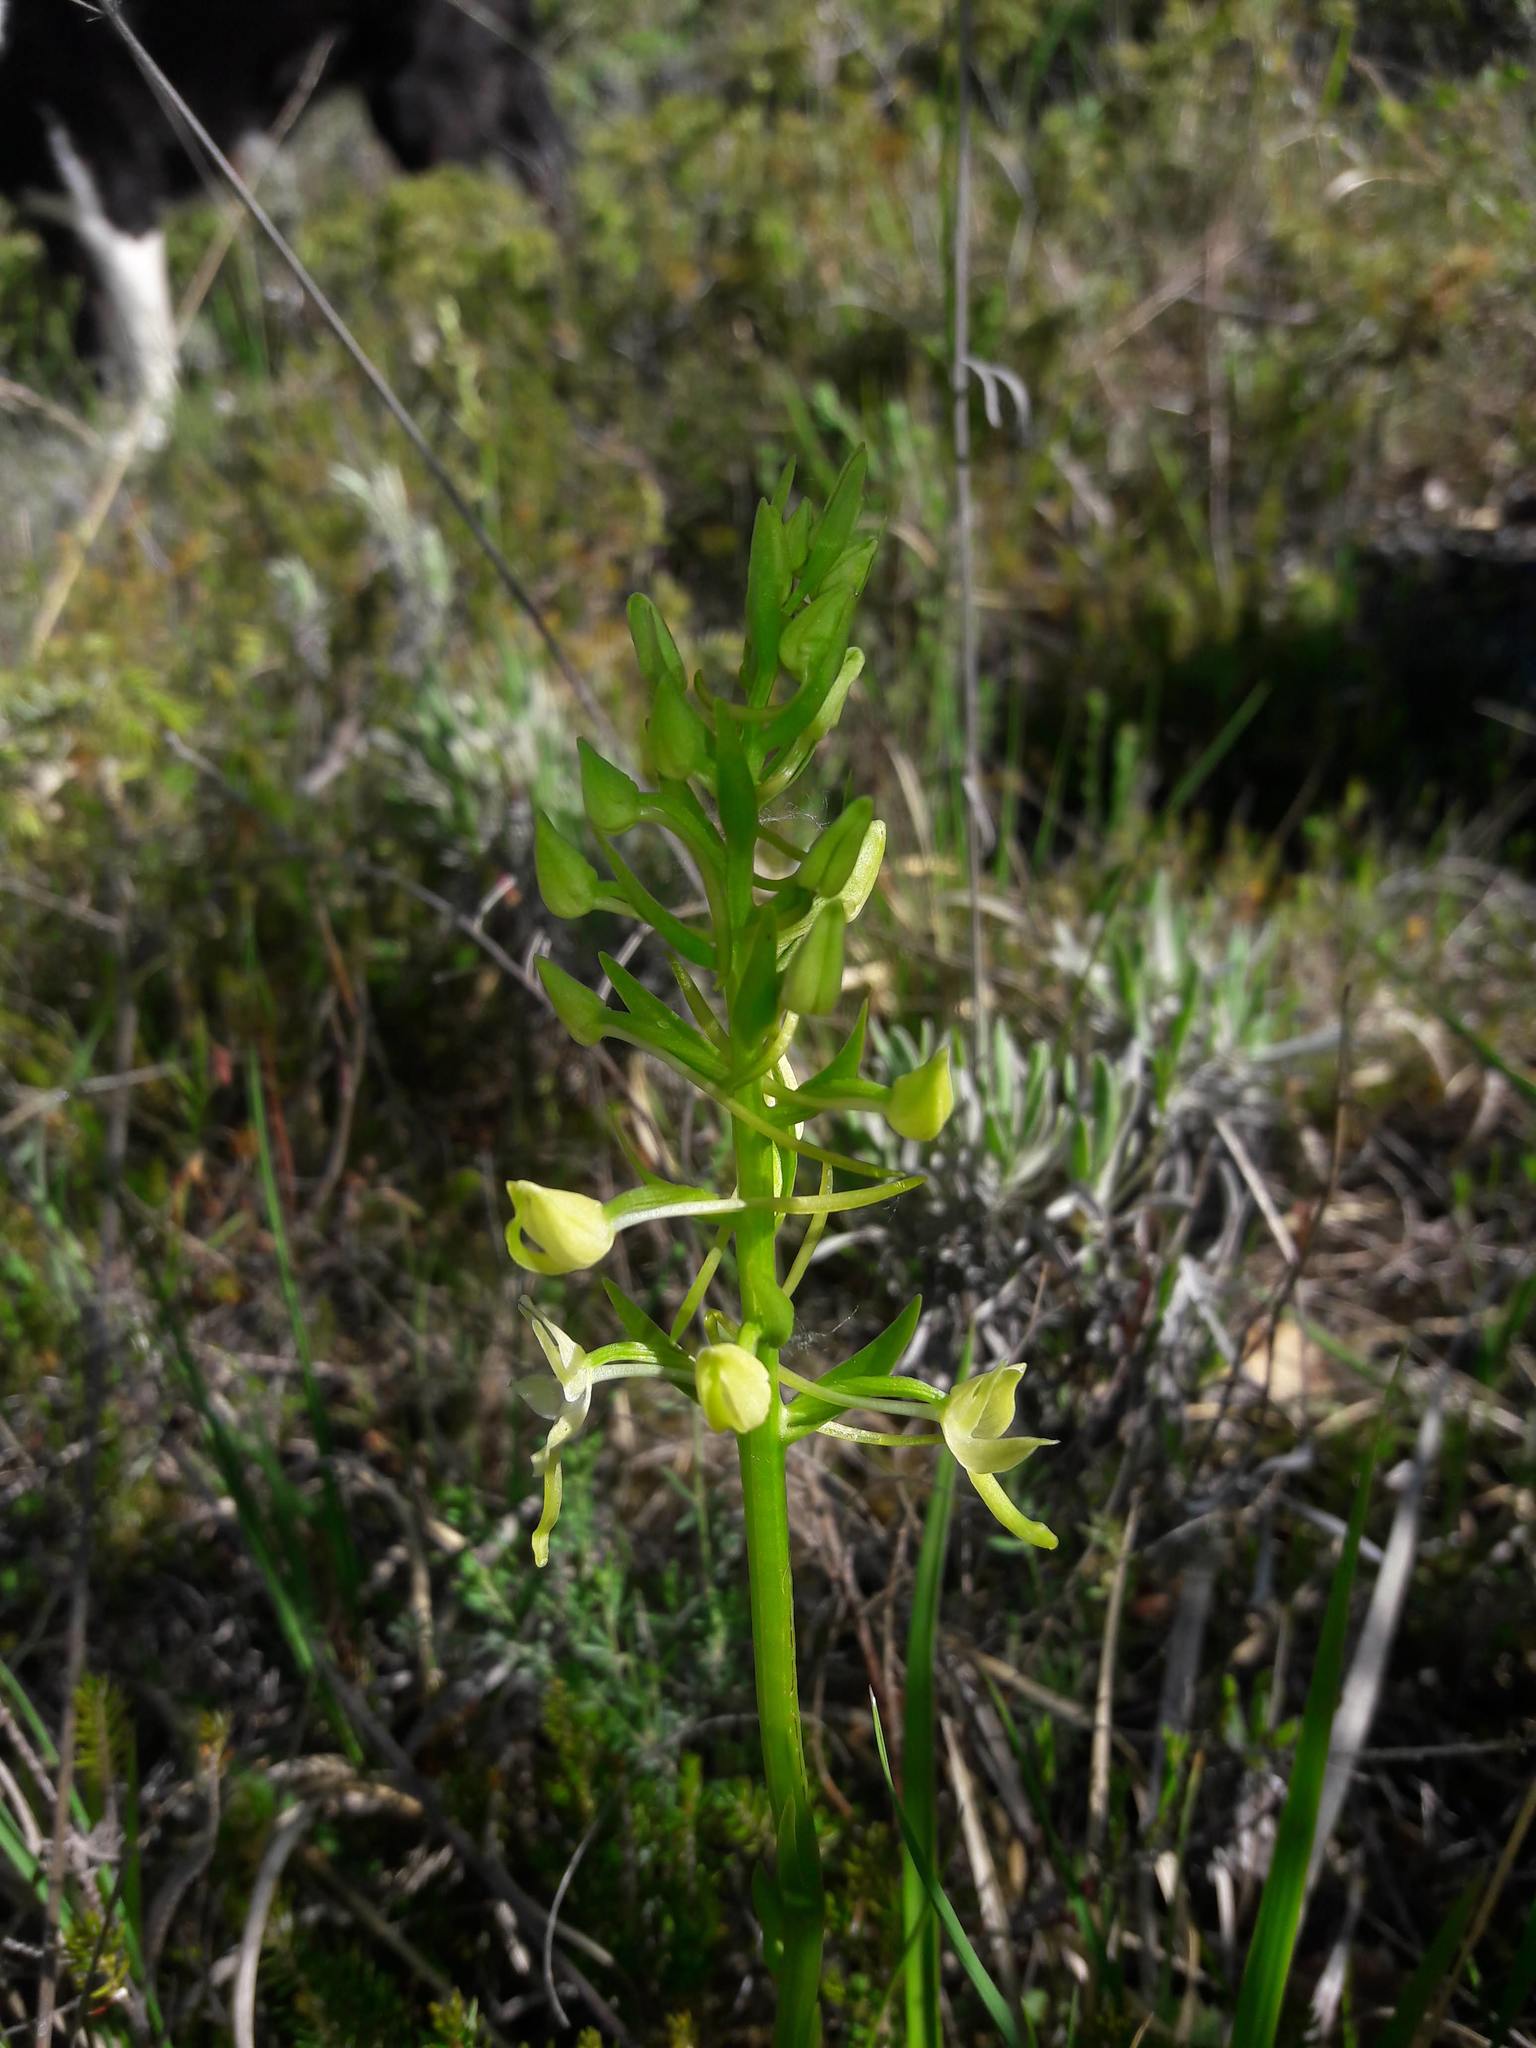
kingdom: Plantae
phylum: Tracheophyta
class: Liliopsida
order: Asparagales
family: Orchidaceae
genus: Platanthera
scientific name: Platanthera bifolia
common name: Lesser butterfly-orchid
